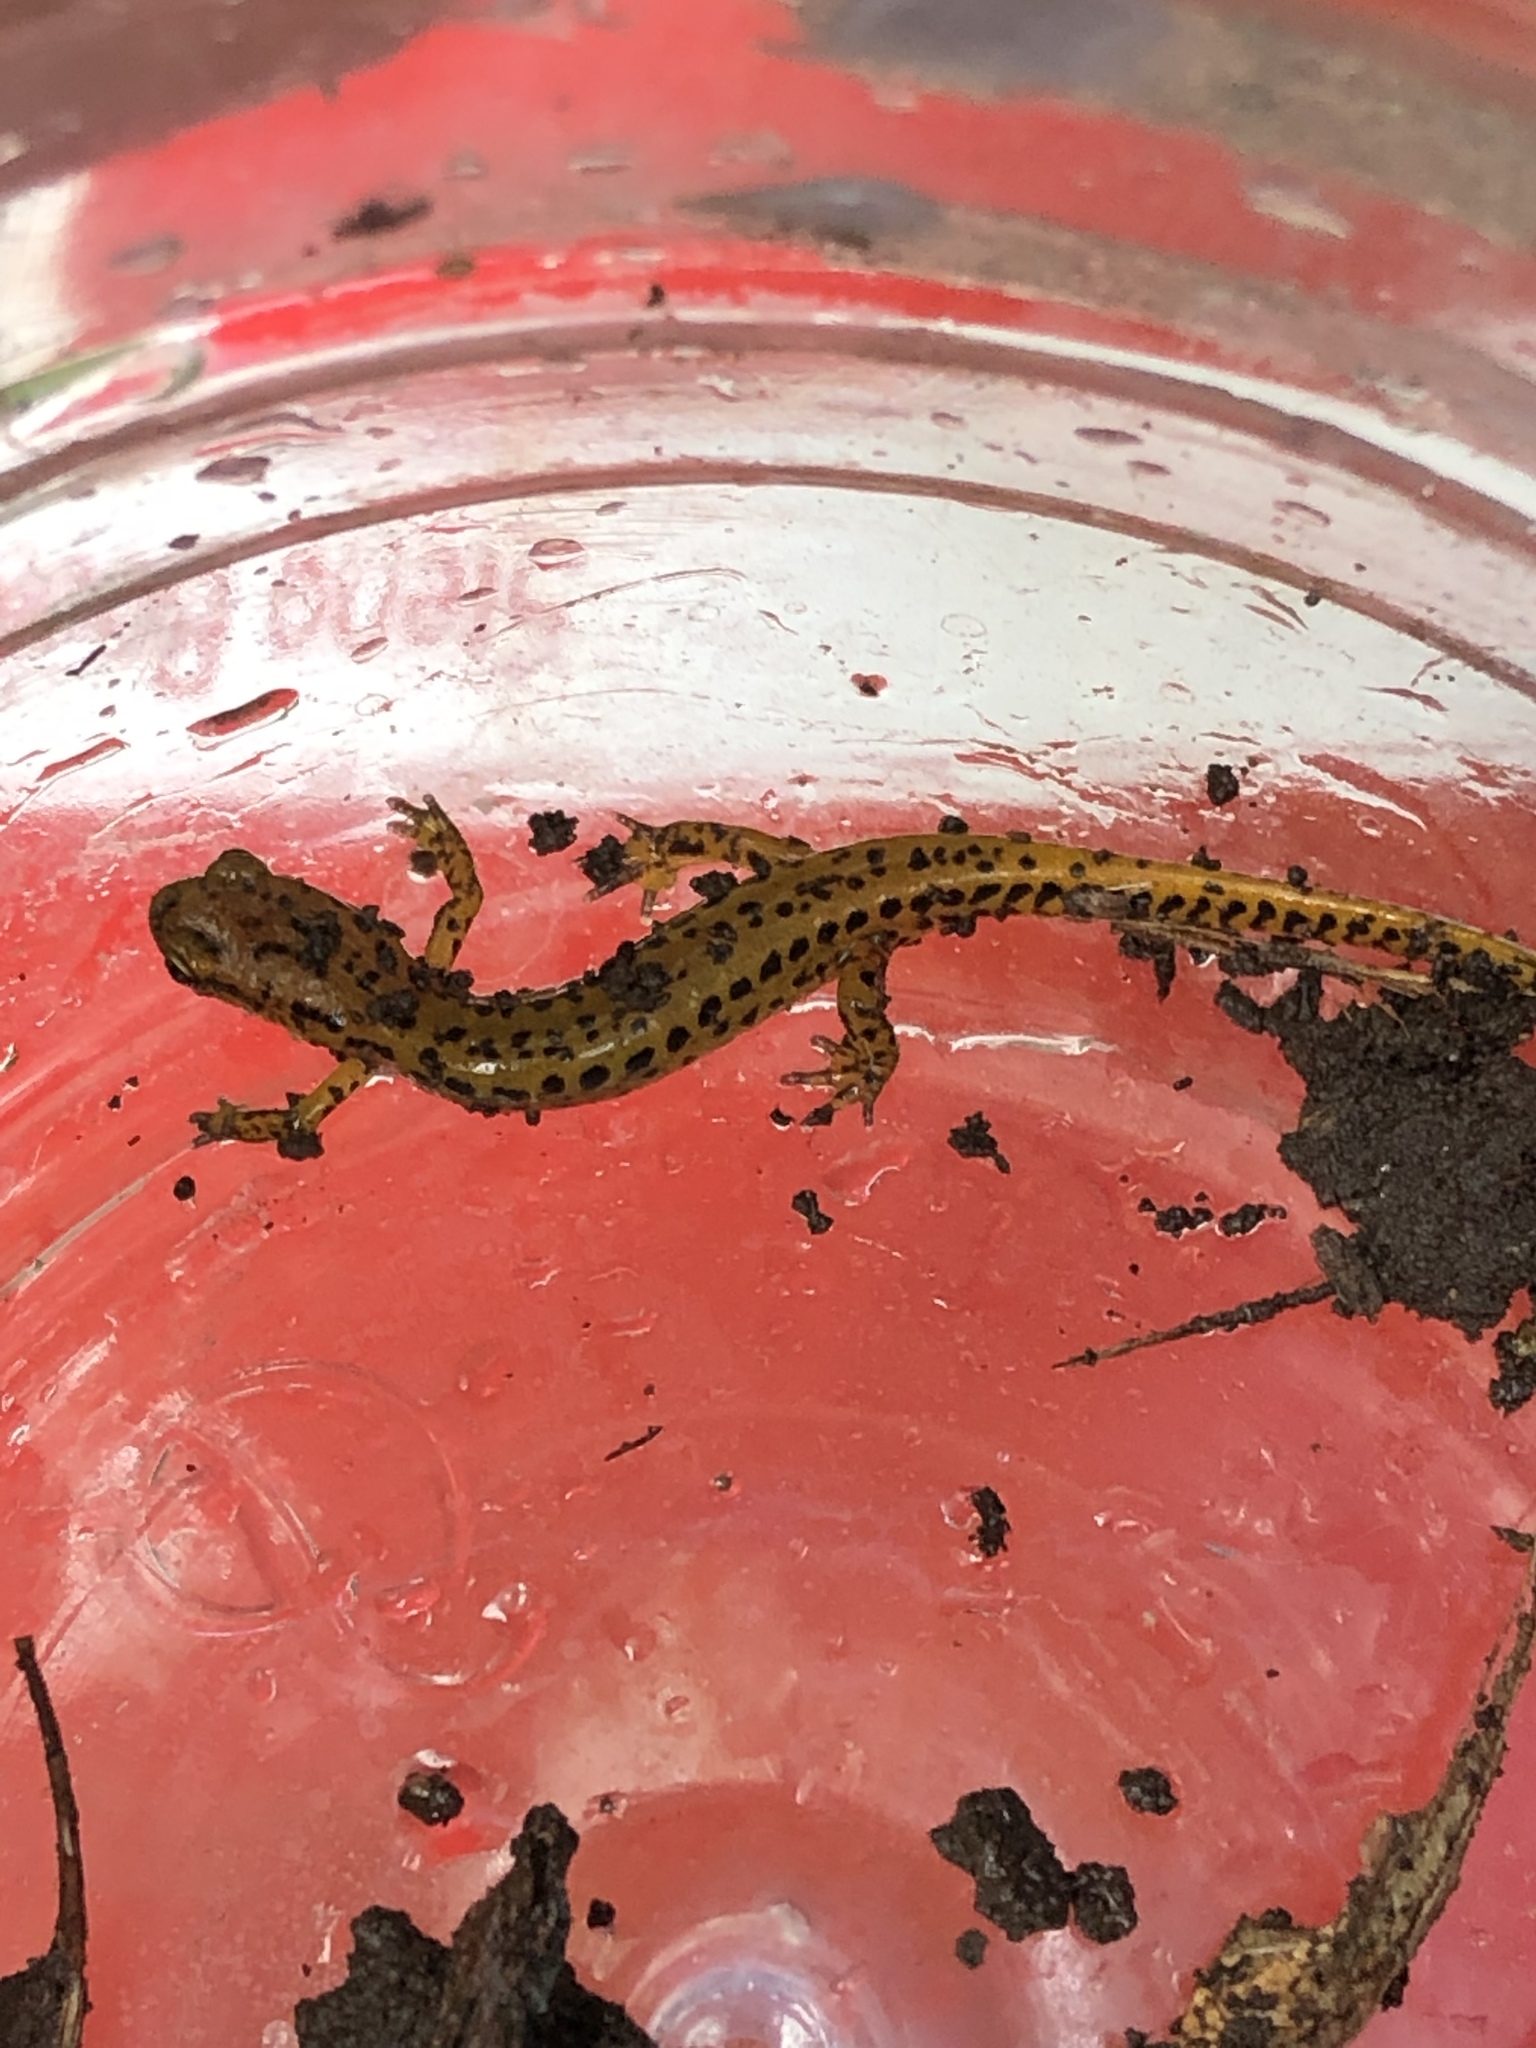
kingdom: Animalia
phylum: Chordata
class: Amphibia
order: Caudata
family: Plethodontidae
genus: Eurycea
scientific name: Eurycea longicauda
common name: Long-tailed salamander
